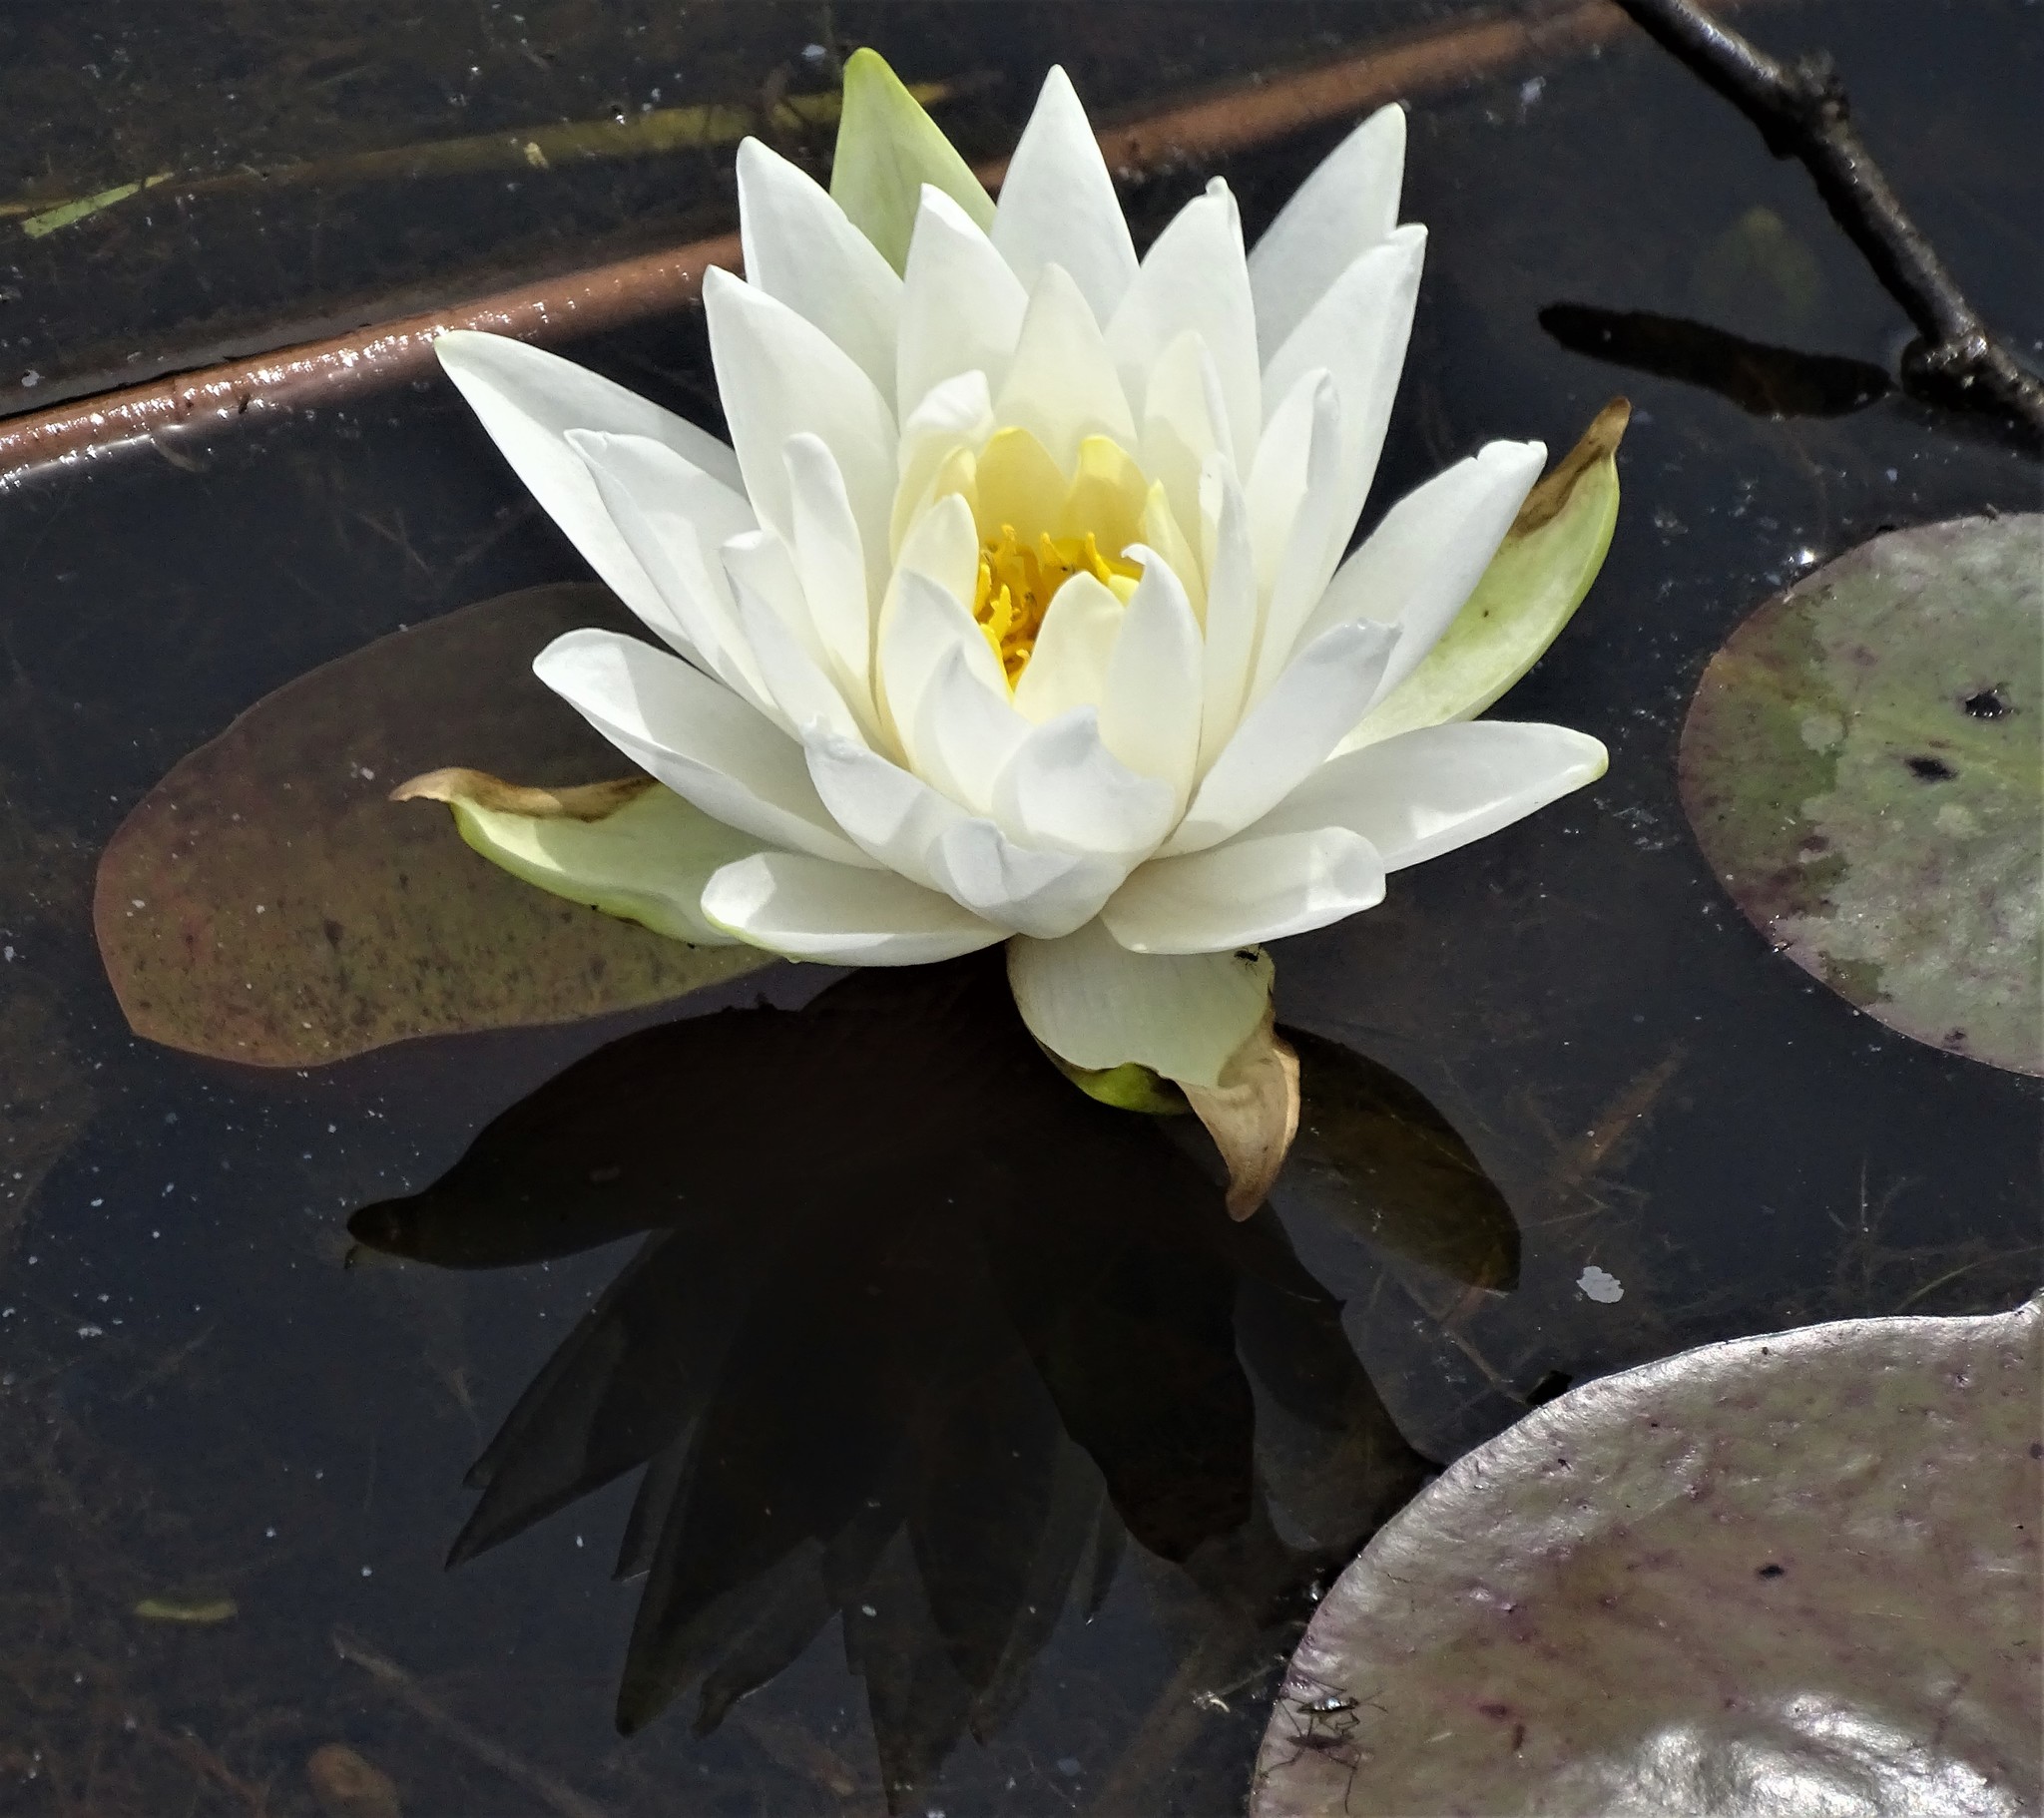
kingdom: Plantae
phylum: Tracheophyta
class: Magnoliopsida
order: Nymphaeales
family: Nymphaeaceae
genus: Nymphaea
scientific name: Nymphaea odorata
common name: Fragrant water-lily
